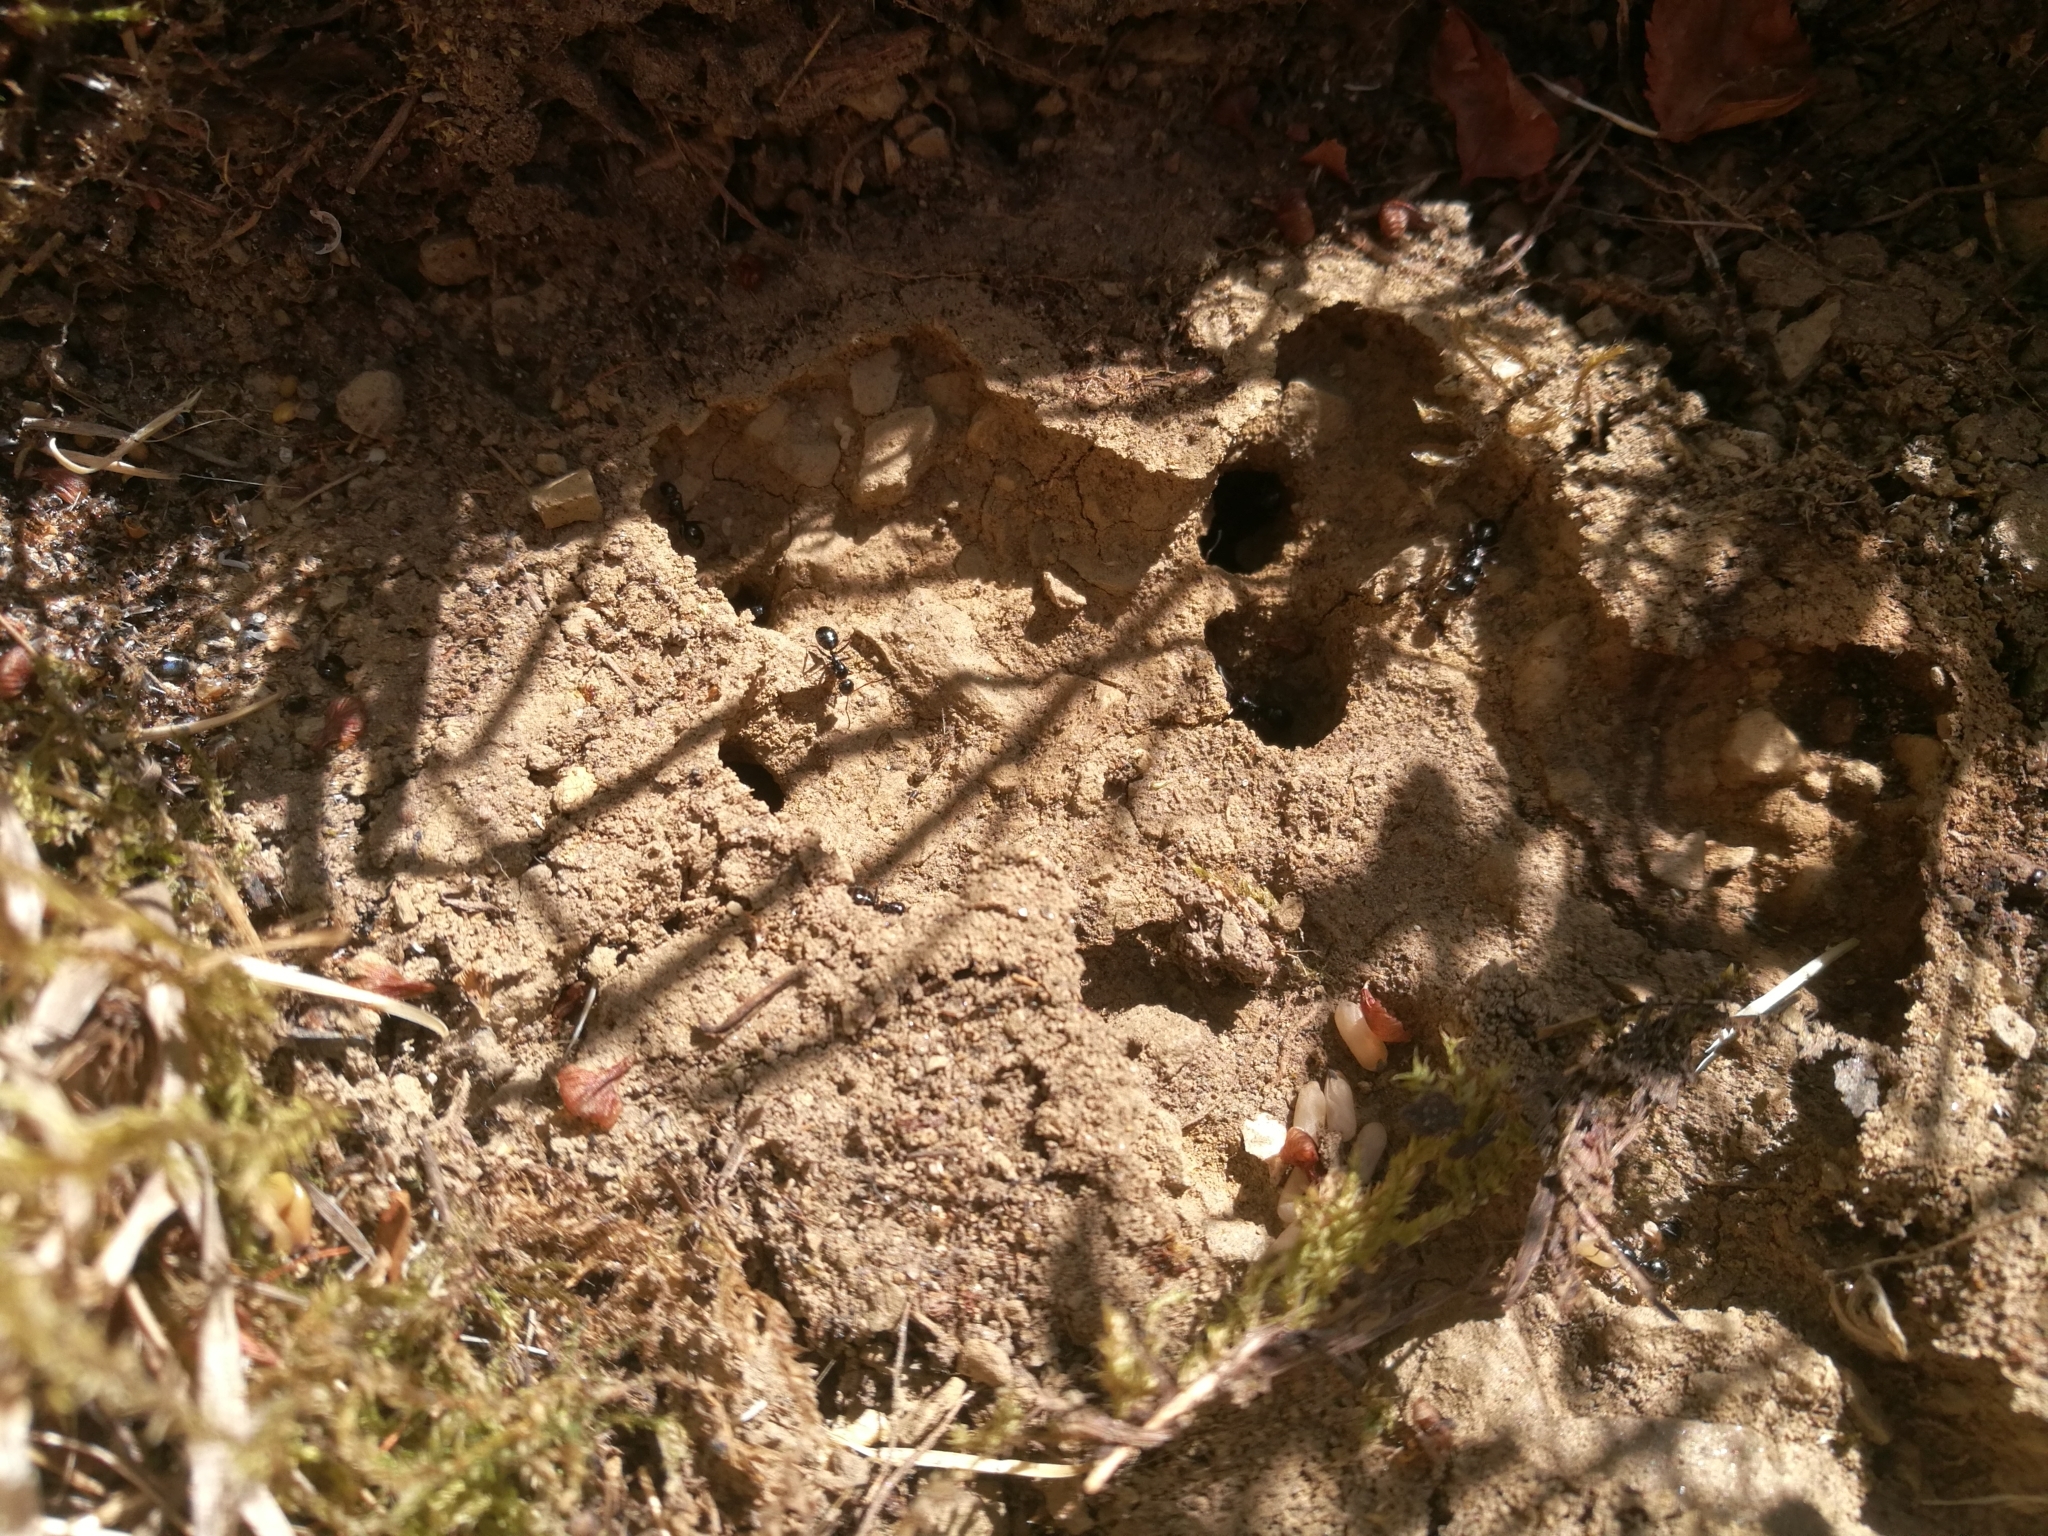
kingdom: Animalia
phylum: Arthropoda
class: Insecta
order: Hymenoptera
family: Formicidae
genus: Camponotus
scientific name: Camponotus piceus
